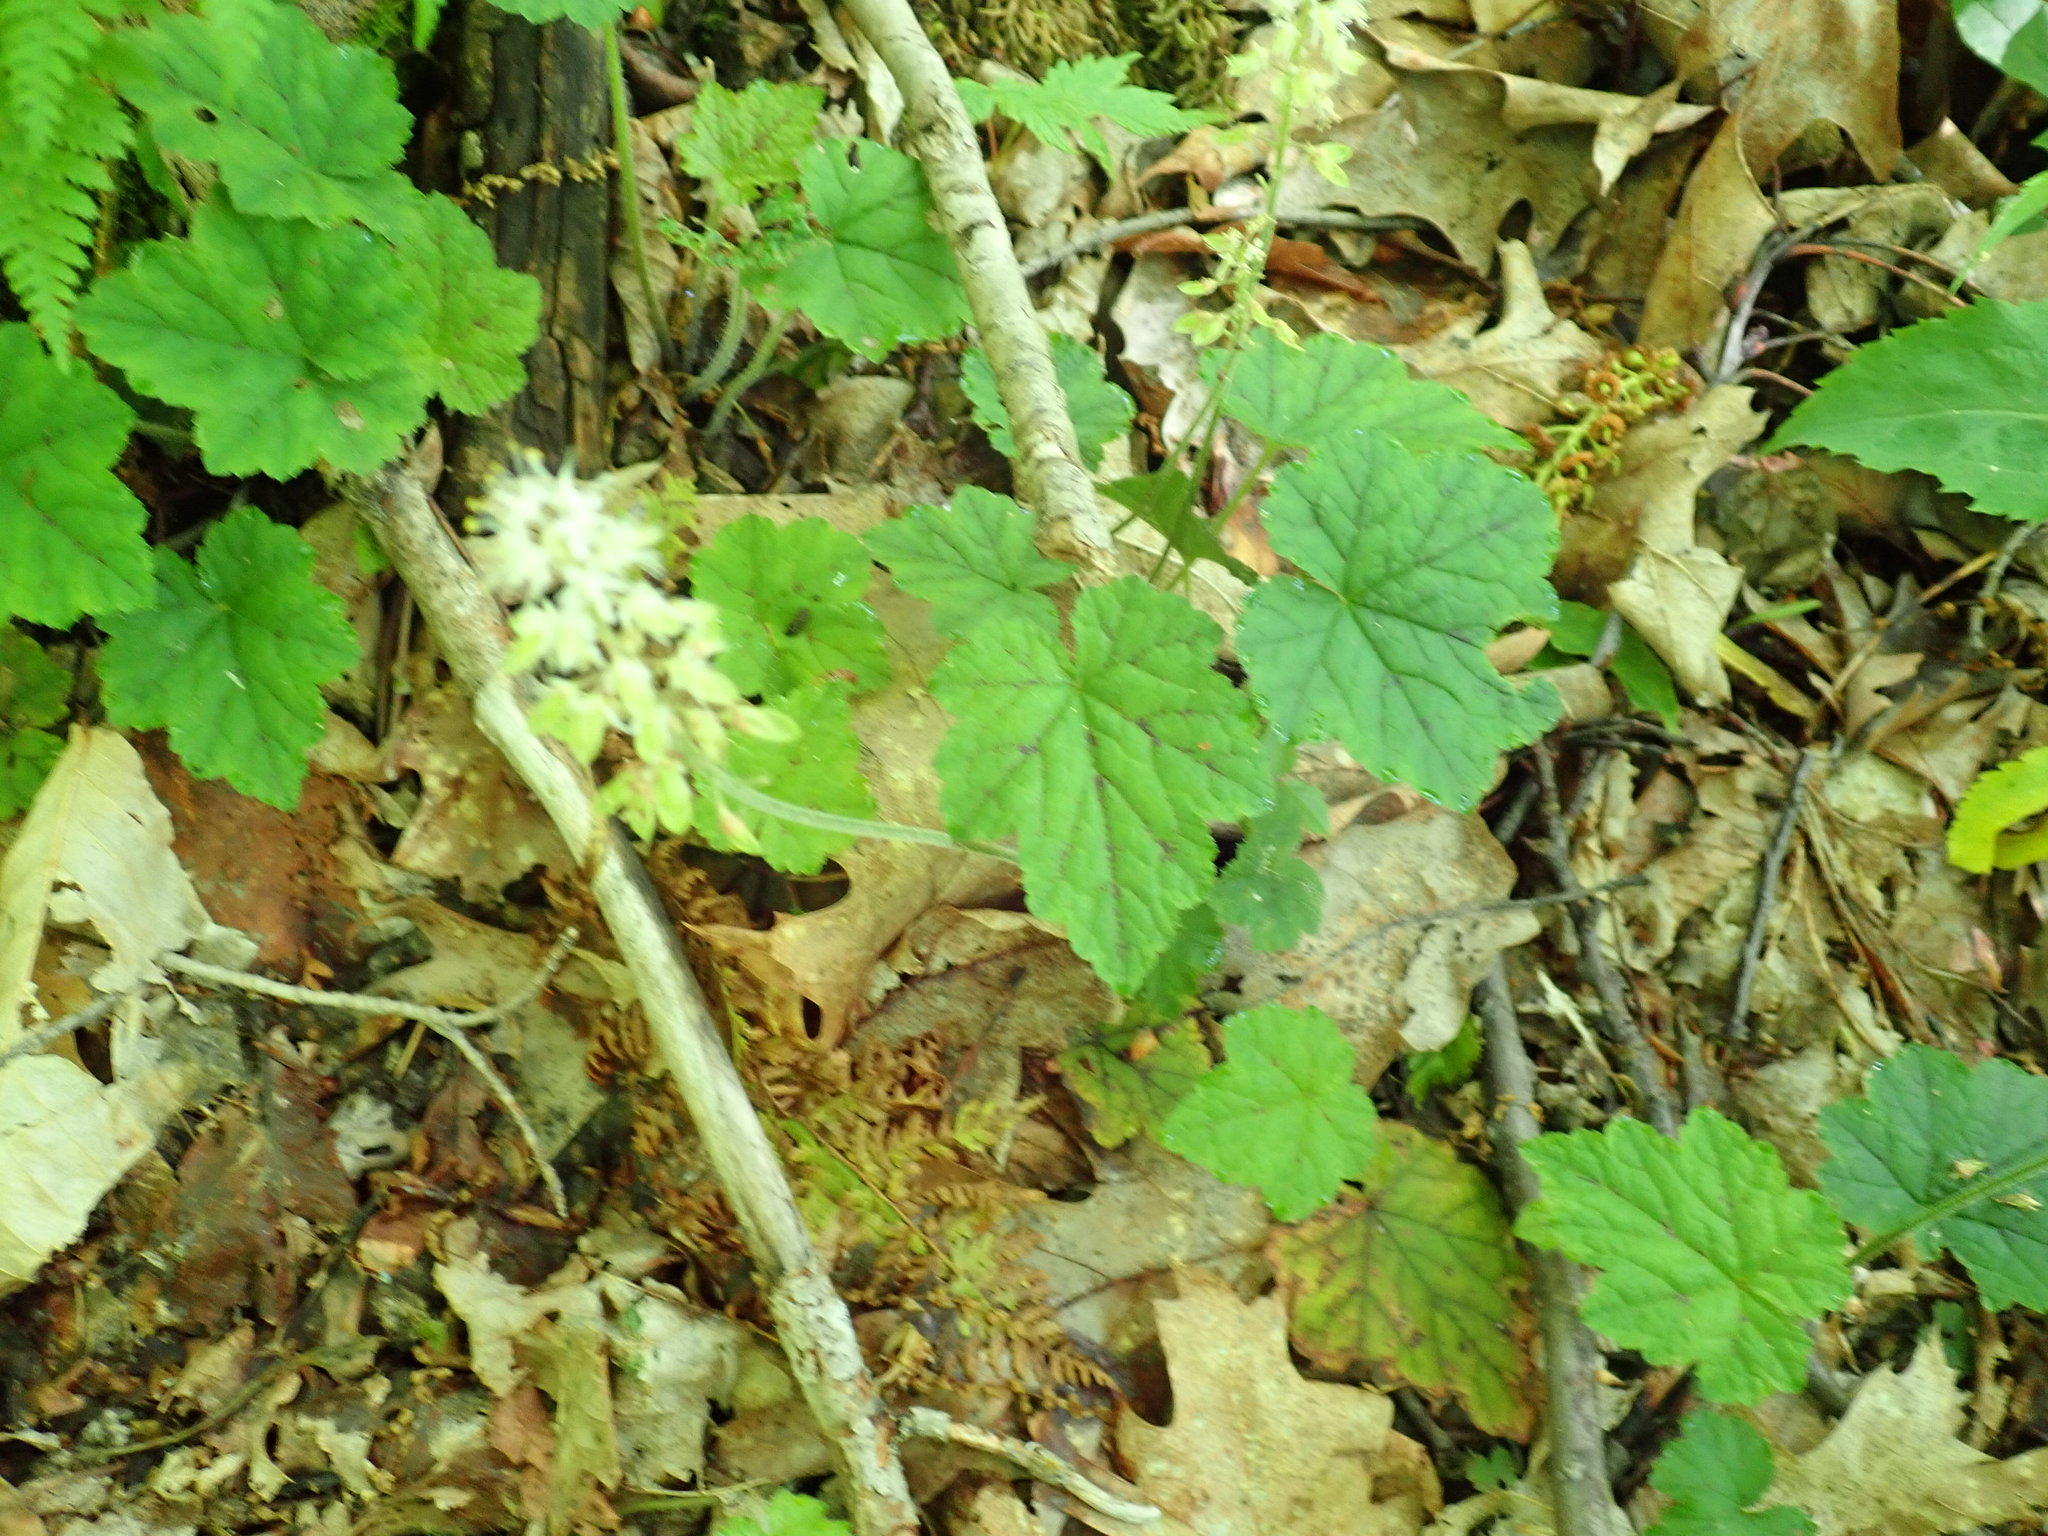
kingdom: Plantae
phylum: Tracheophyta
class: Magnoliopsida
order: Saxifragales
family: Saxifragaceae
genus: Tiarella
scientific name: Tiarella stolonifera
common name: Stoloniferous foamflower
